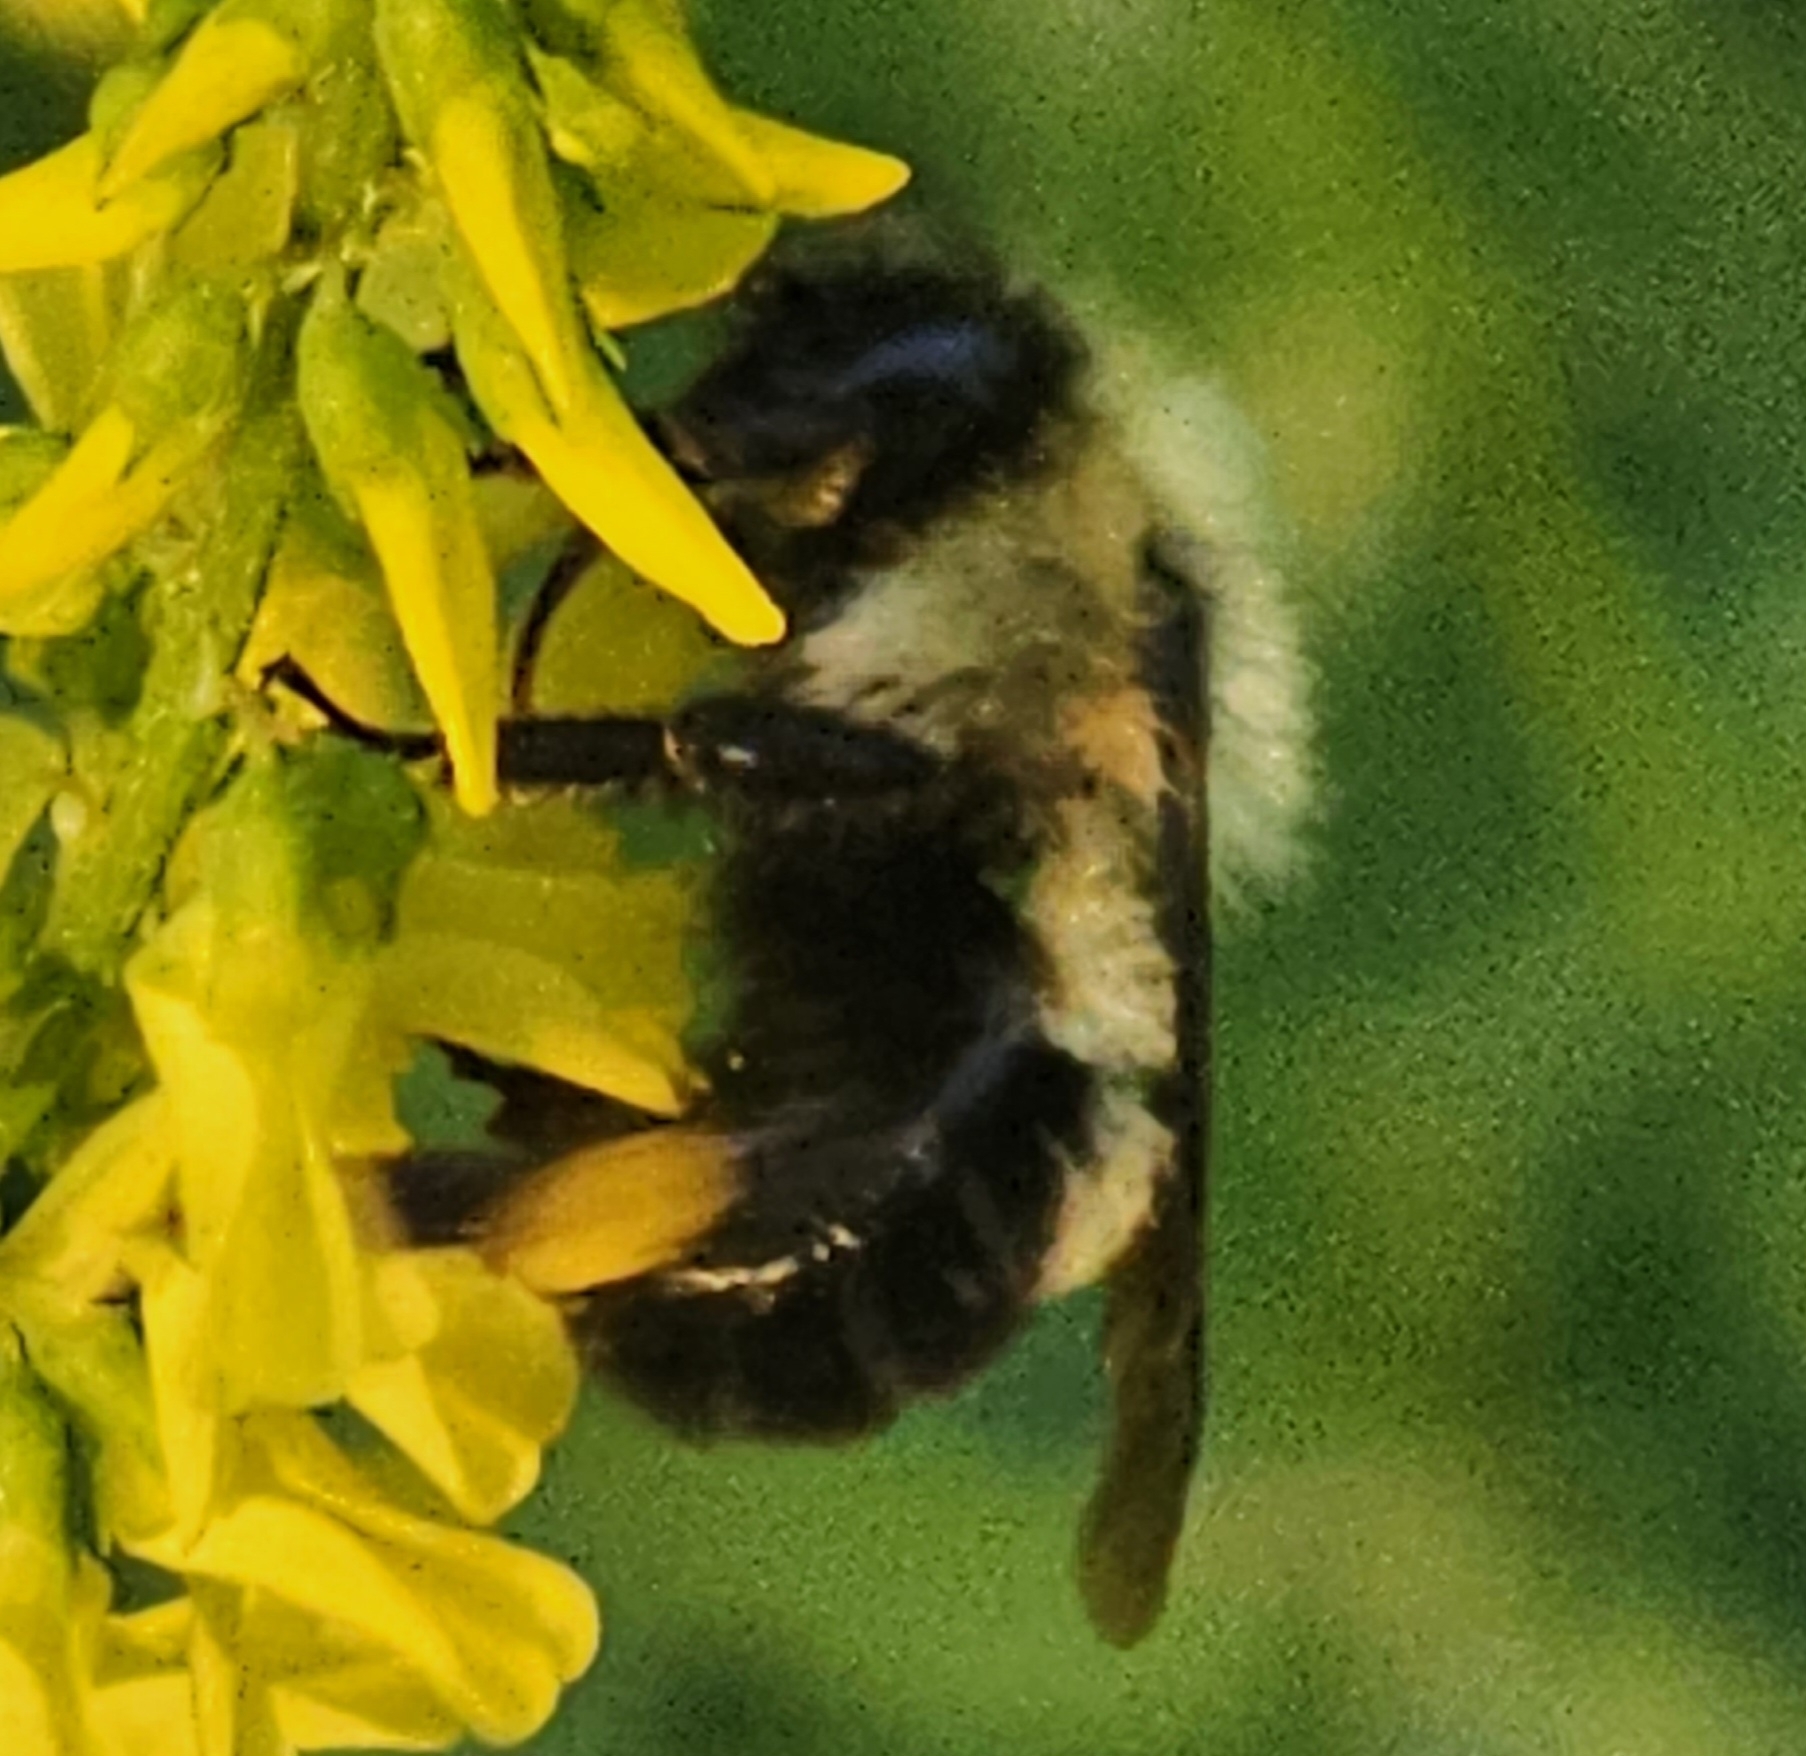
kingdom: Animalia
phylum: Arthropoda
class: Insecta
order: Hymenoptera
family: Apidae
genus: Bombus
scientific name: Bombus bimaculatus
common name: Two-spotted bumble bee
